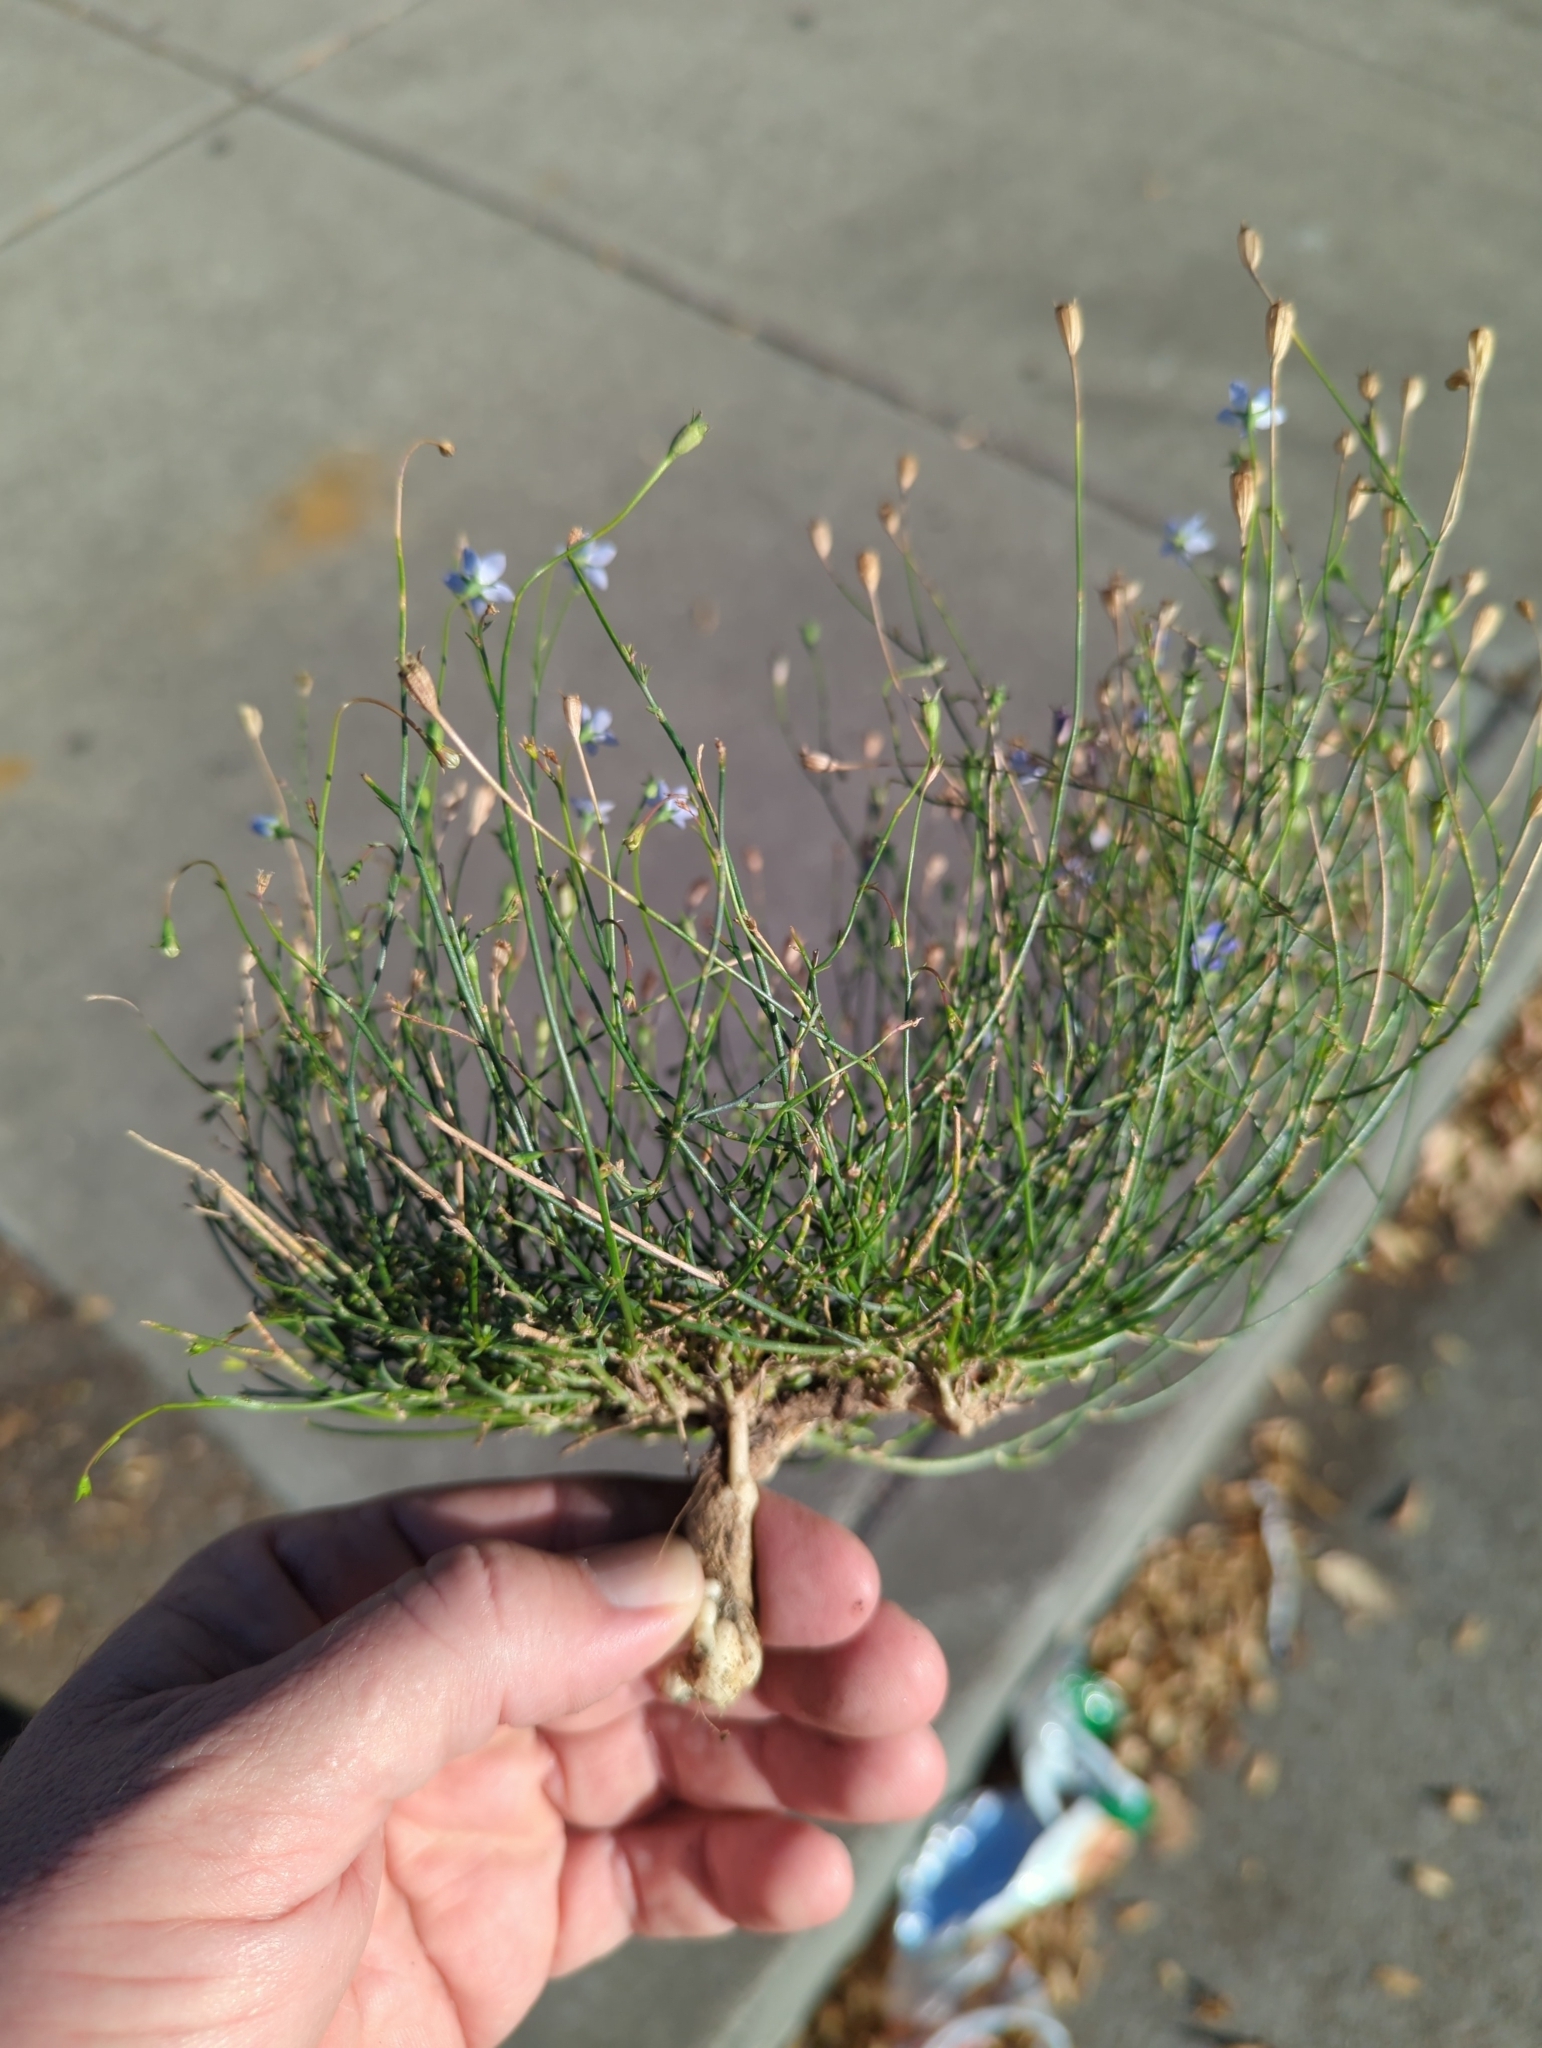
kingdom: Plantae
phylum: Tracheophyta
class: Magnoliopsida
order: Asterales
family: Campanulaceae
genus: Wahlenbergia
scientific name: Wahlenbergia marginata
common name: Southern rockbell
